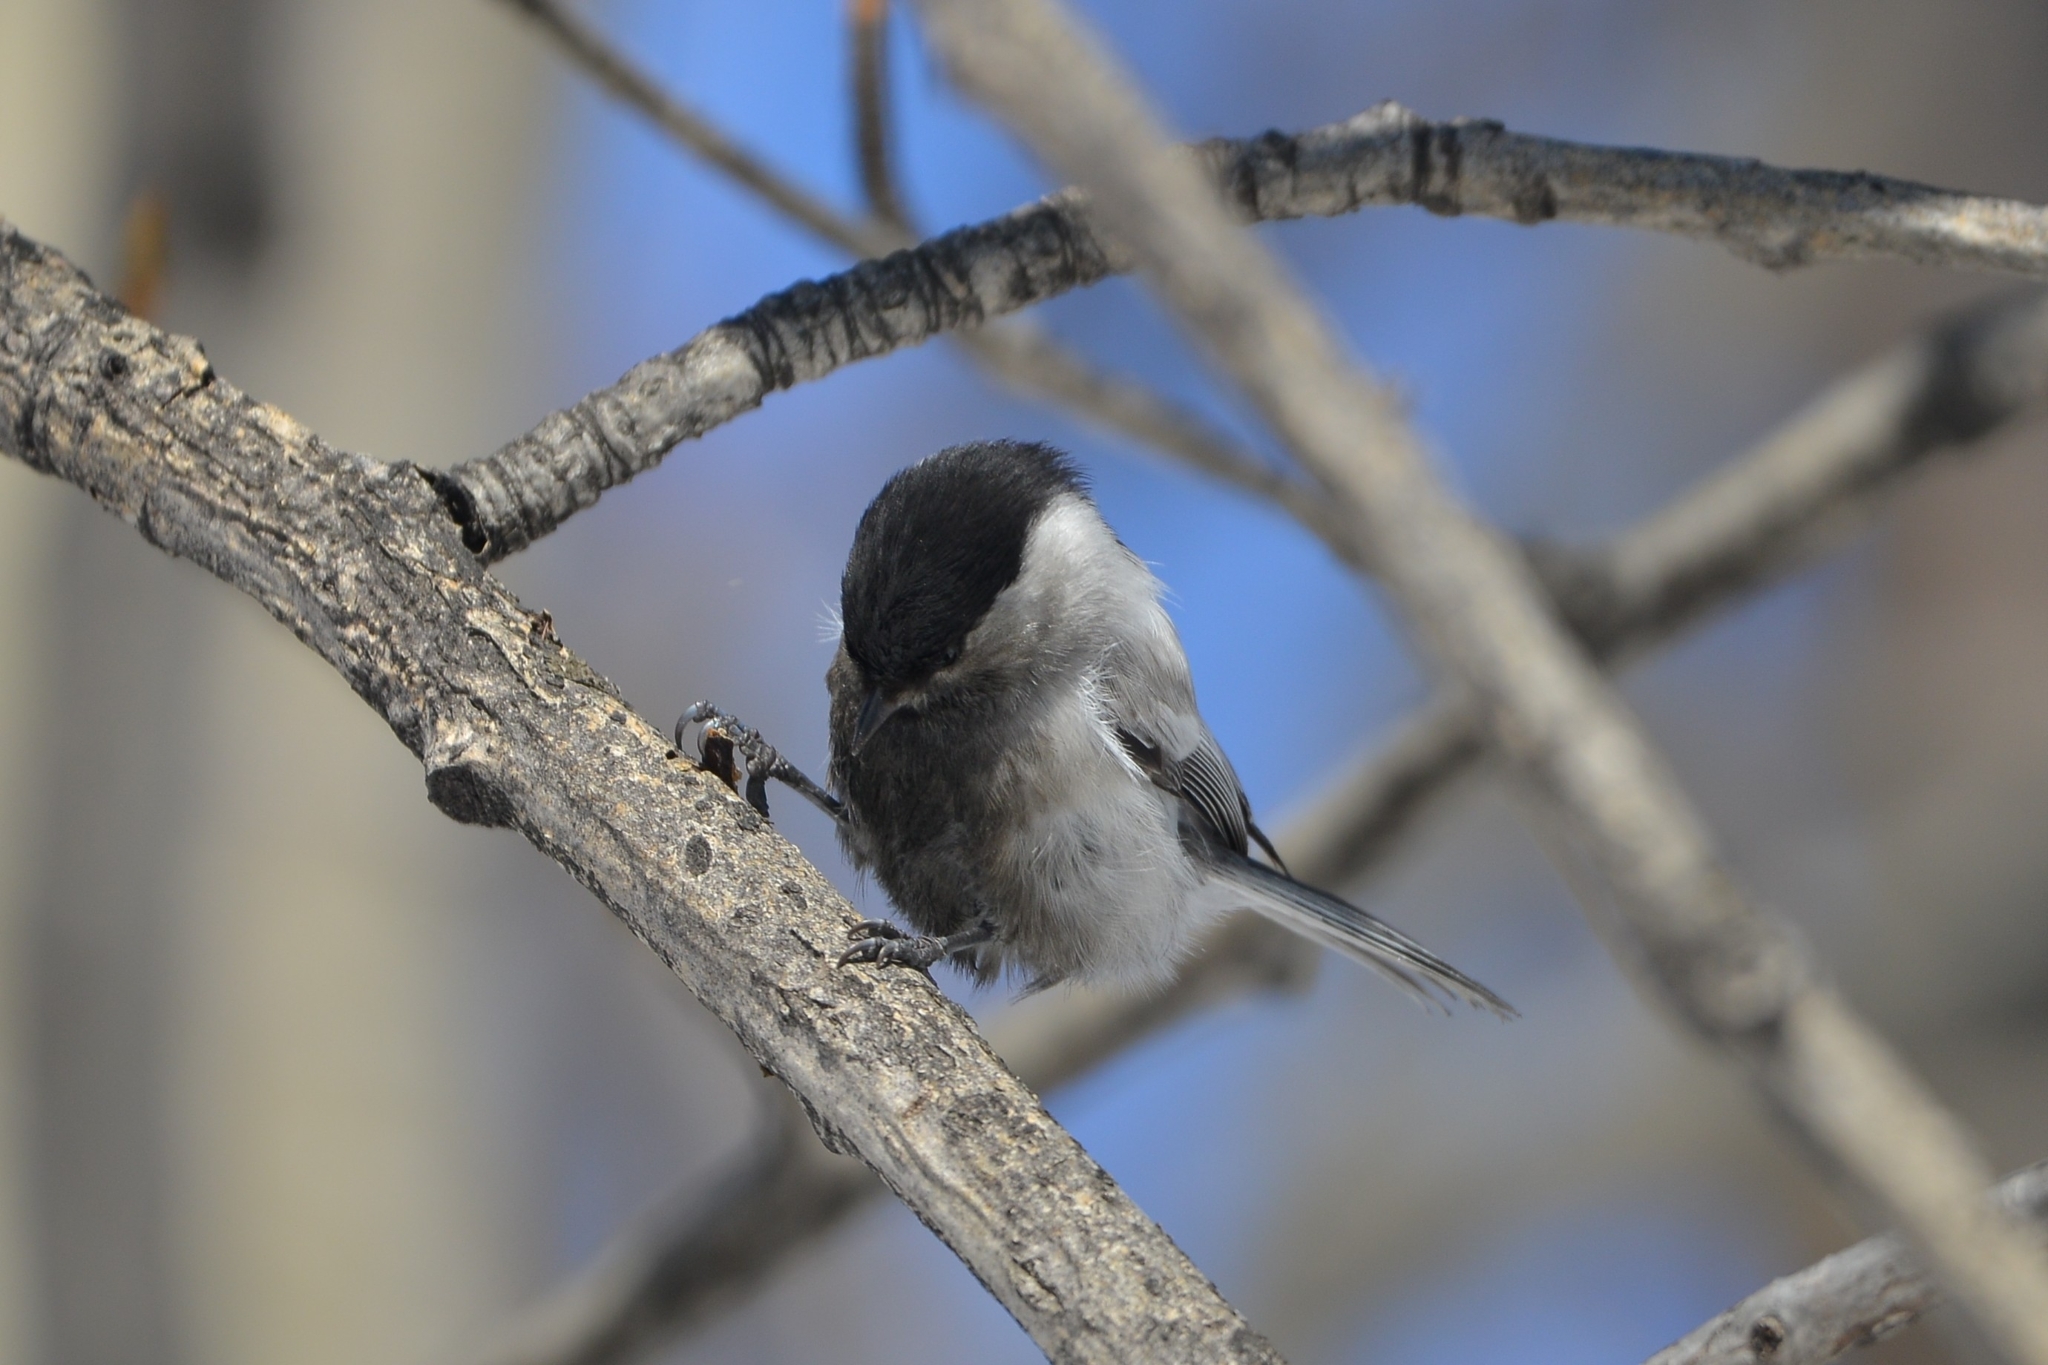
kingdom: Animalia
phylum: Chordata
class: Aves
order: Passeriformes
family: Paridae
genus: Poecile
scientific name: Poecile montanus
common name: Willow tit
